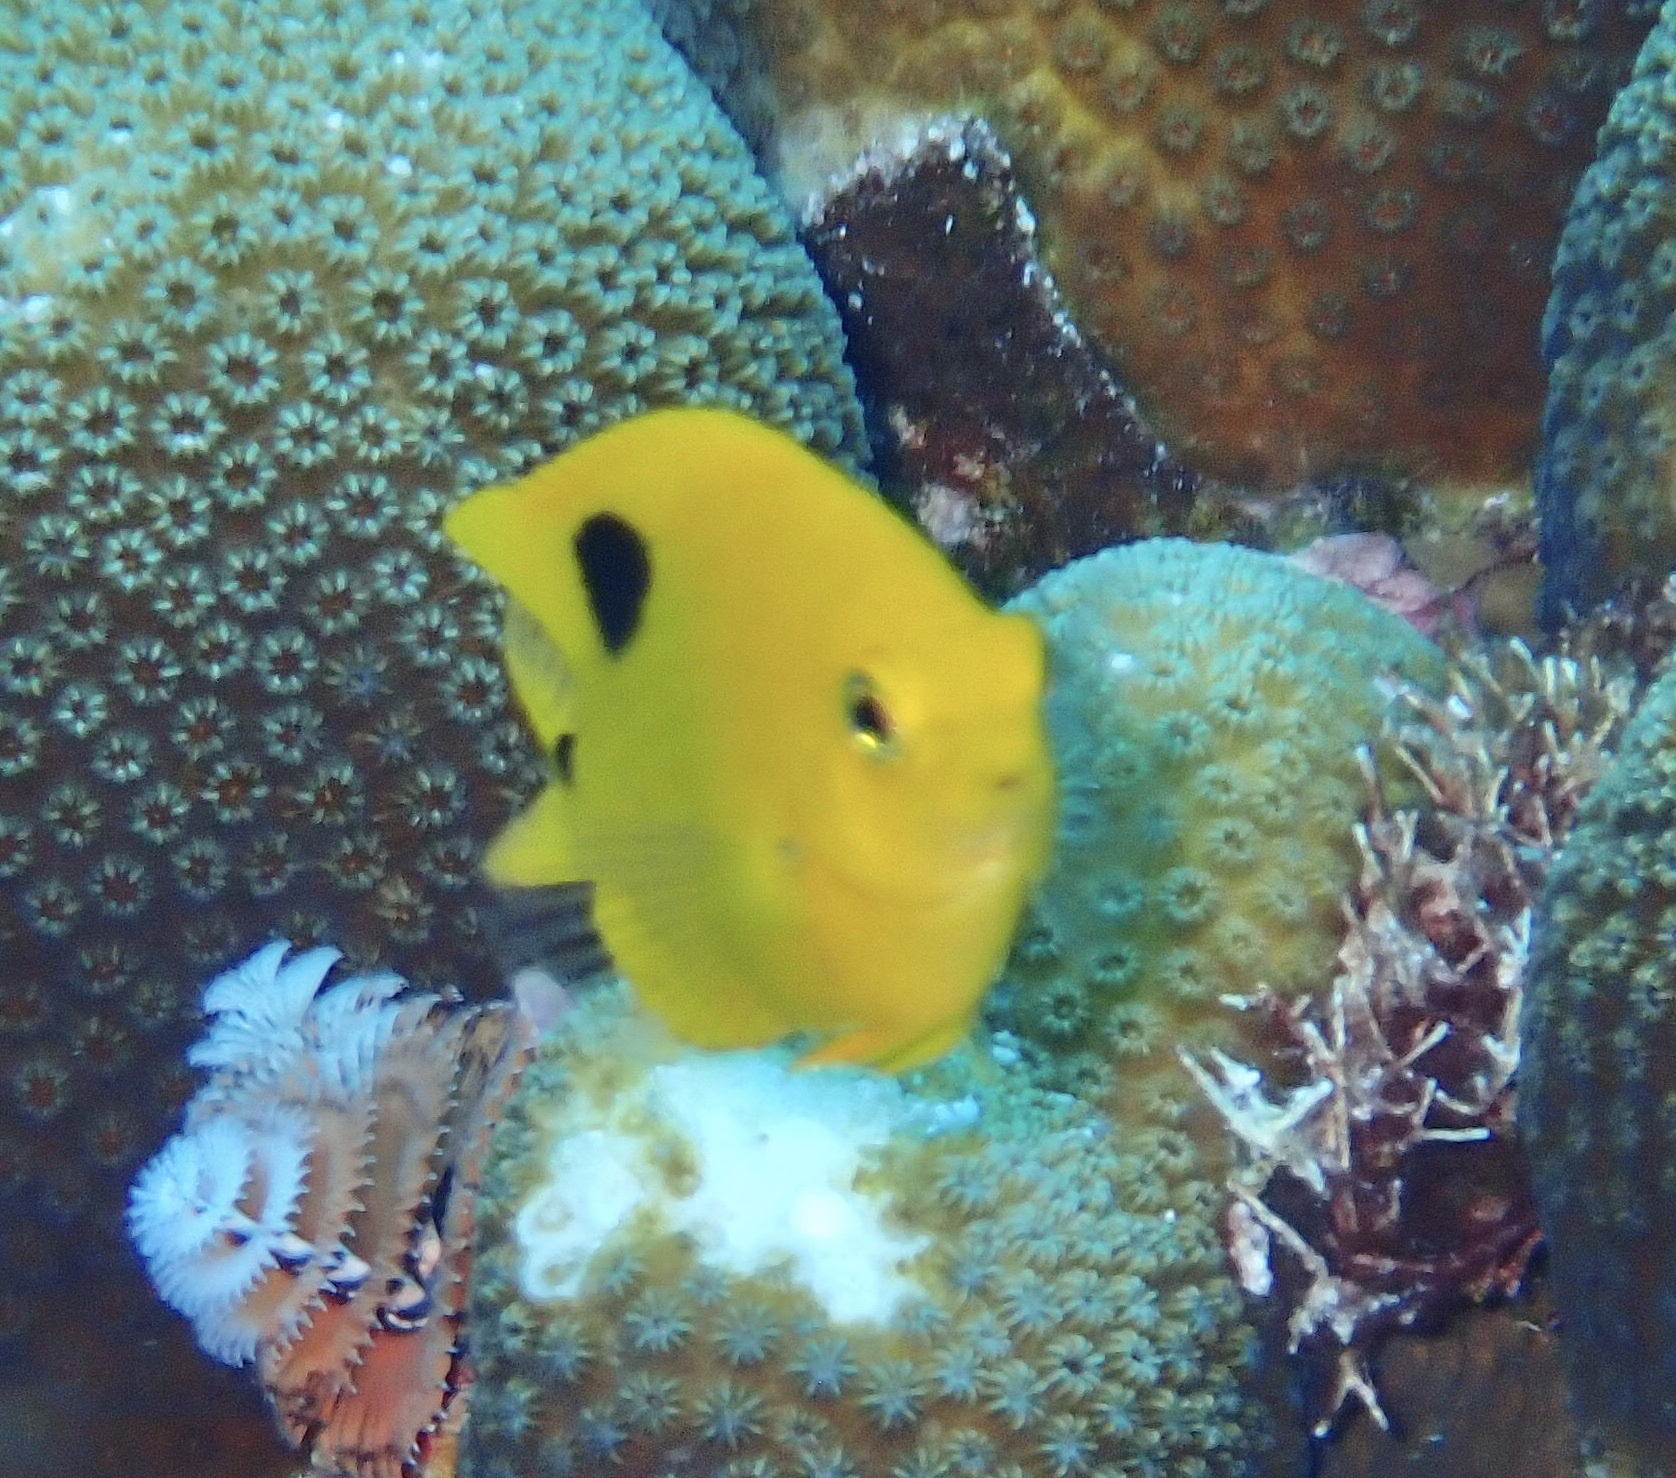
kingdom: Animalia
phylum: Chordata
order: Perciformes
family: Pomacentridae
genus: Stegastes
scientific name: Stegastes planifrons
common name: Threespot damselfish
